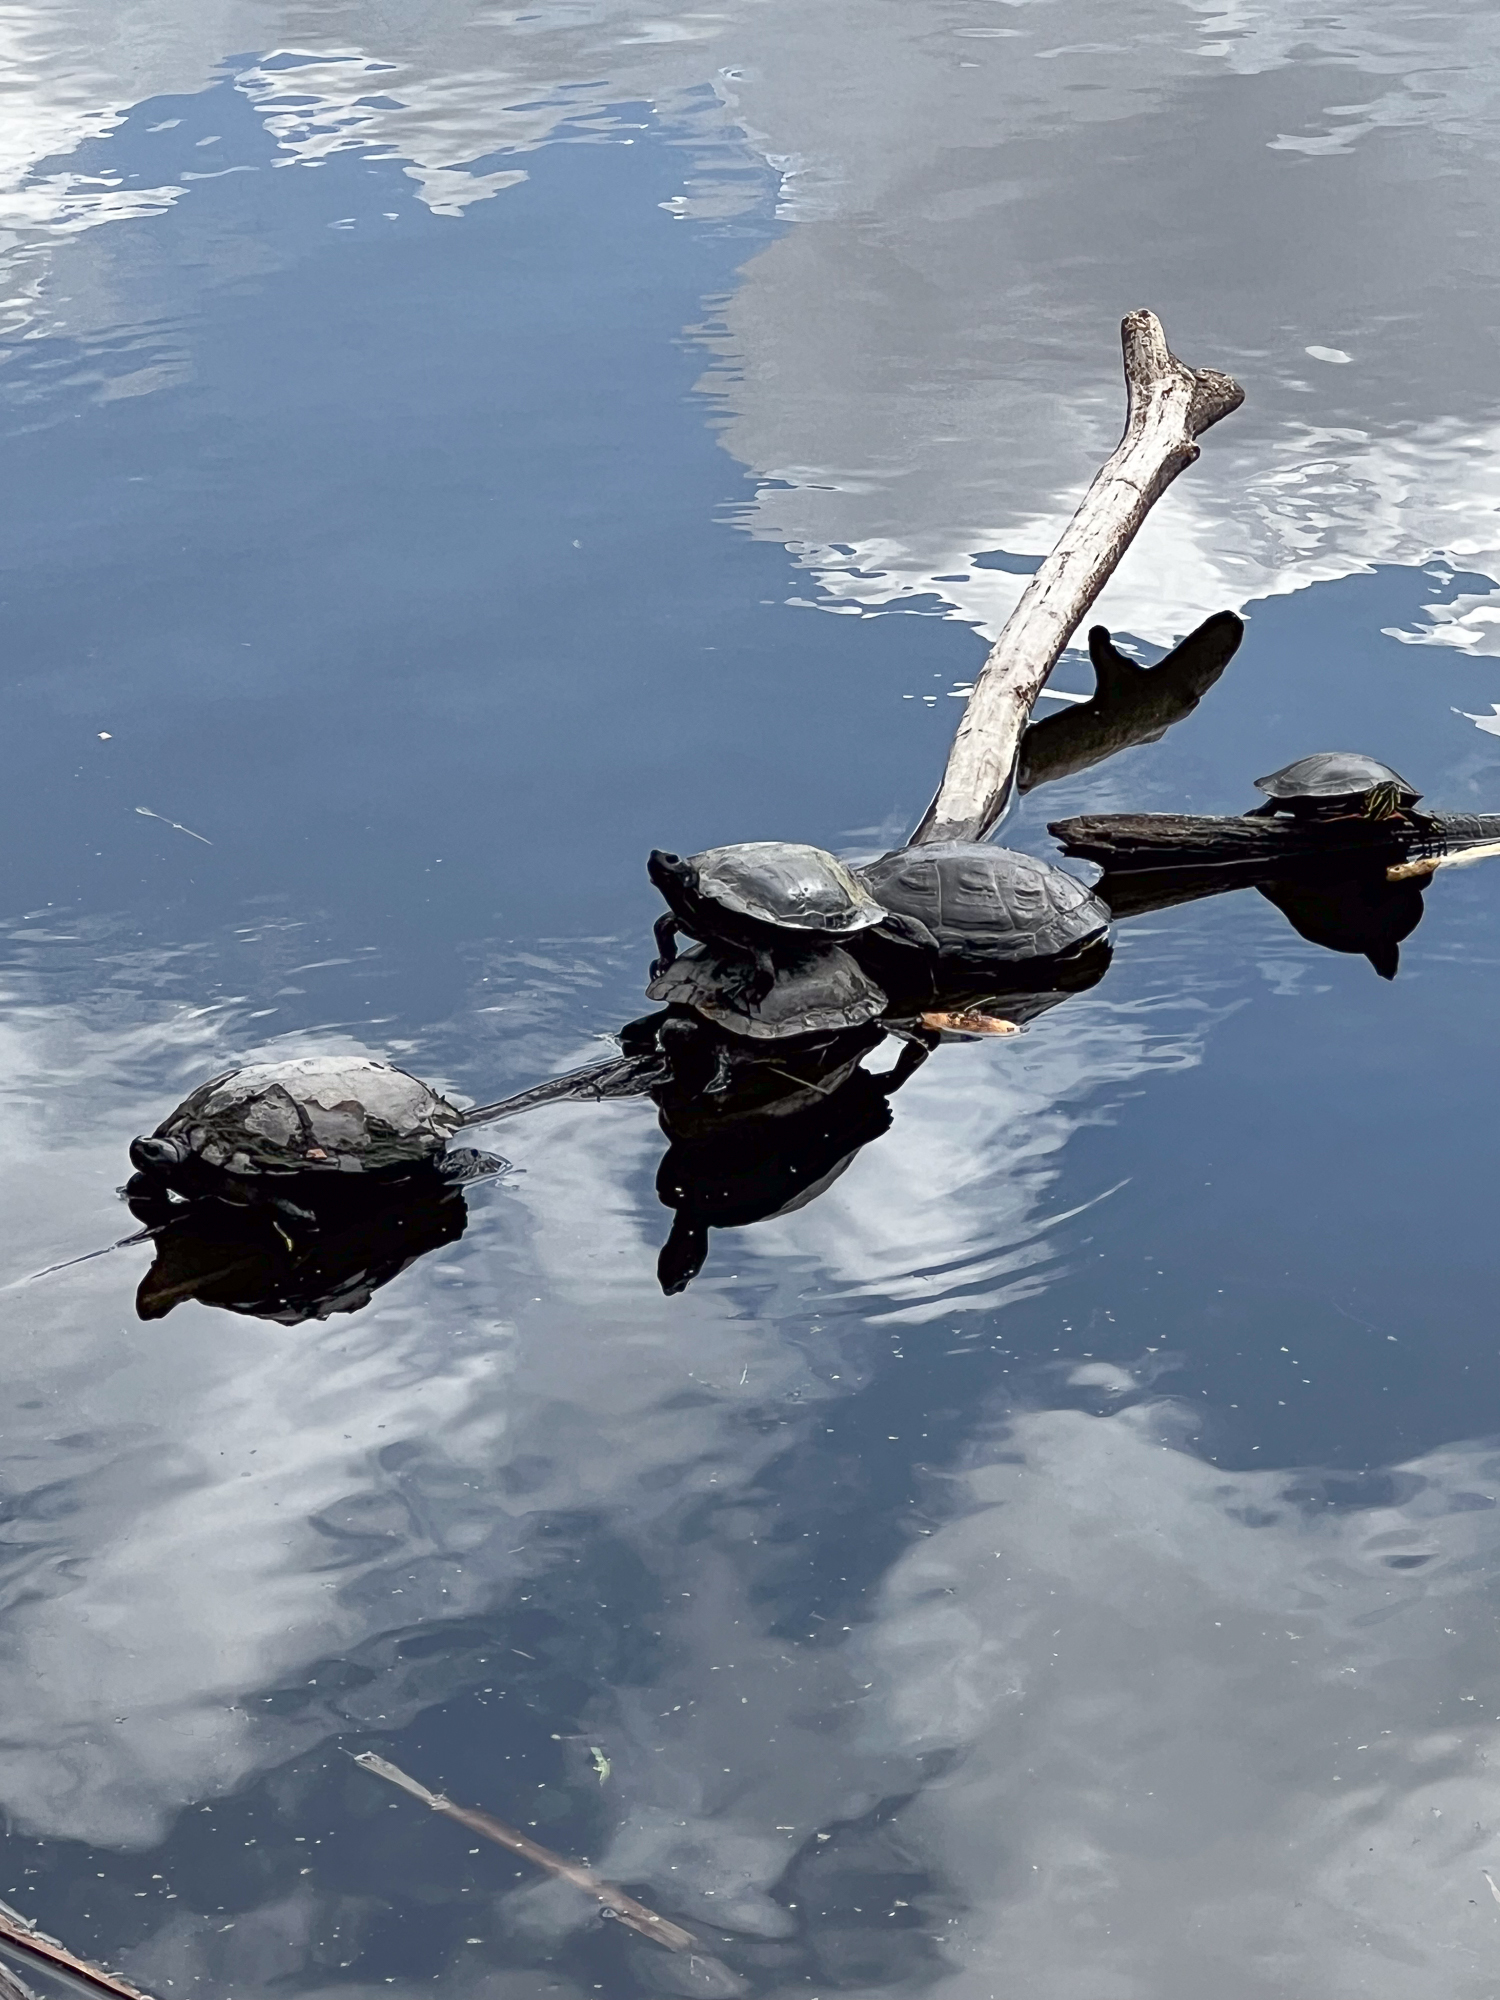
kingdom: Animalia
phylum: Chordata
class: Testudines
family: Emydidae
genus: Chrysemys
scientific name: Chrysemys picta
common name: Painted turtle
